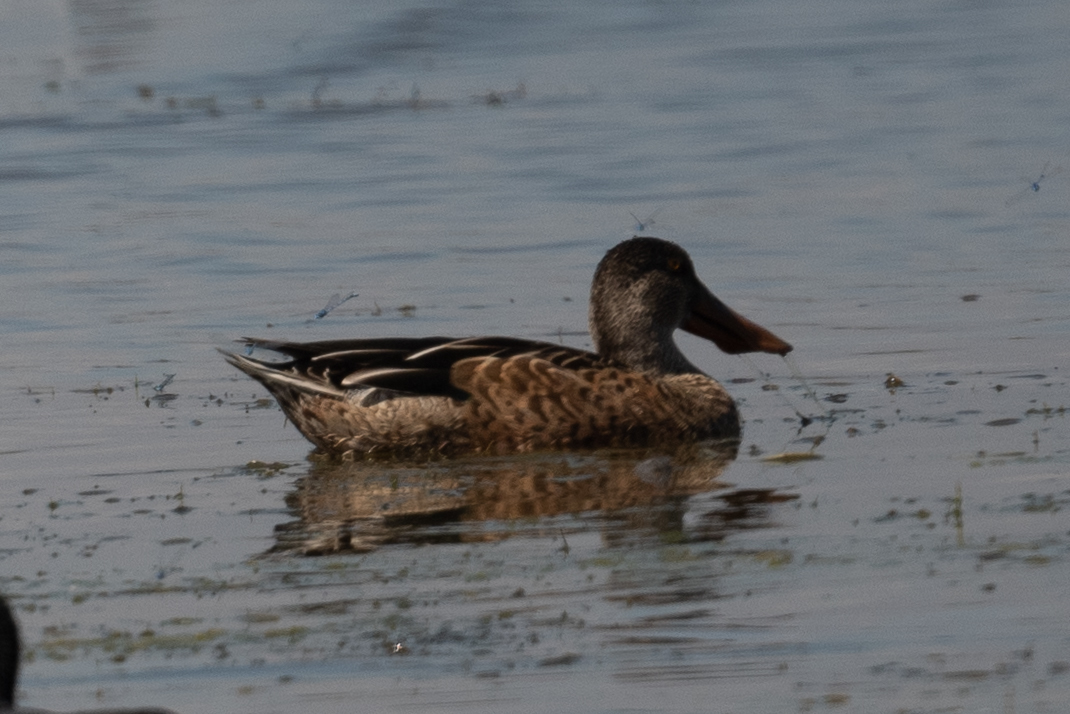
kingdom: Animalia
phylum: Chordata
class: Aves
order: Anseriformes
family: Anatidae
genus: Spatula
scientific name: Spatula clypeata
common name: Northern shoveler
